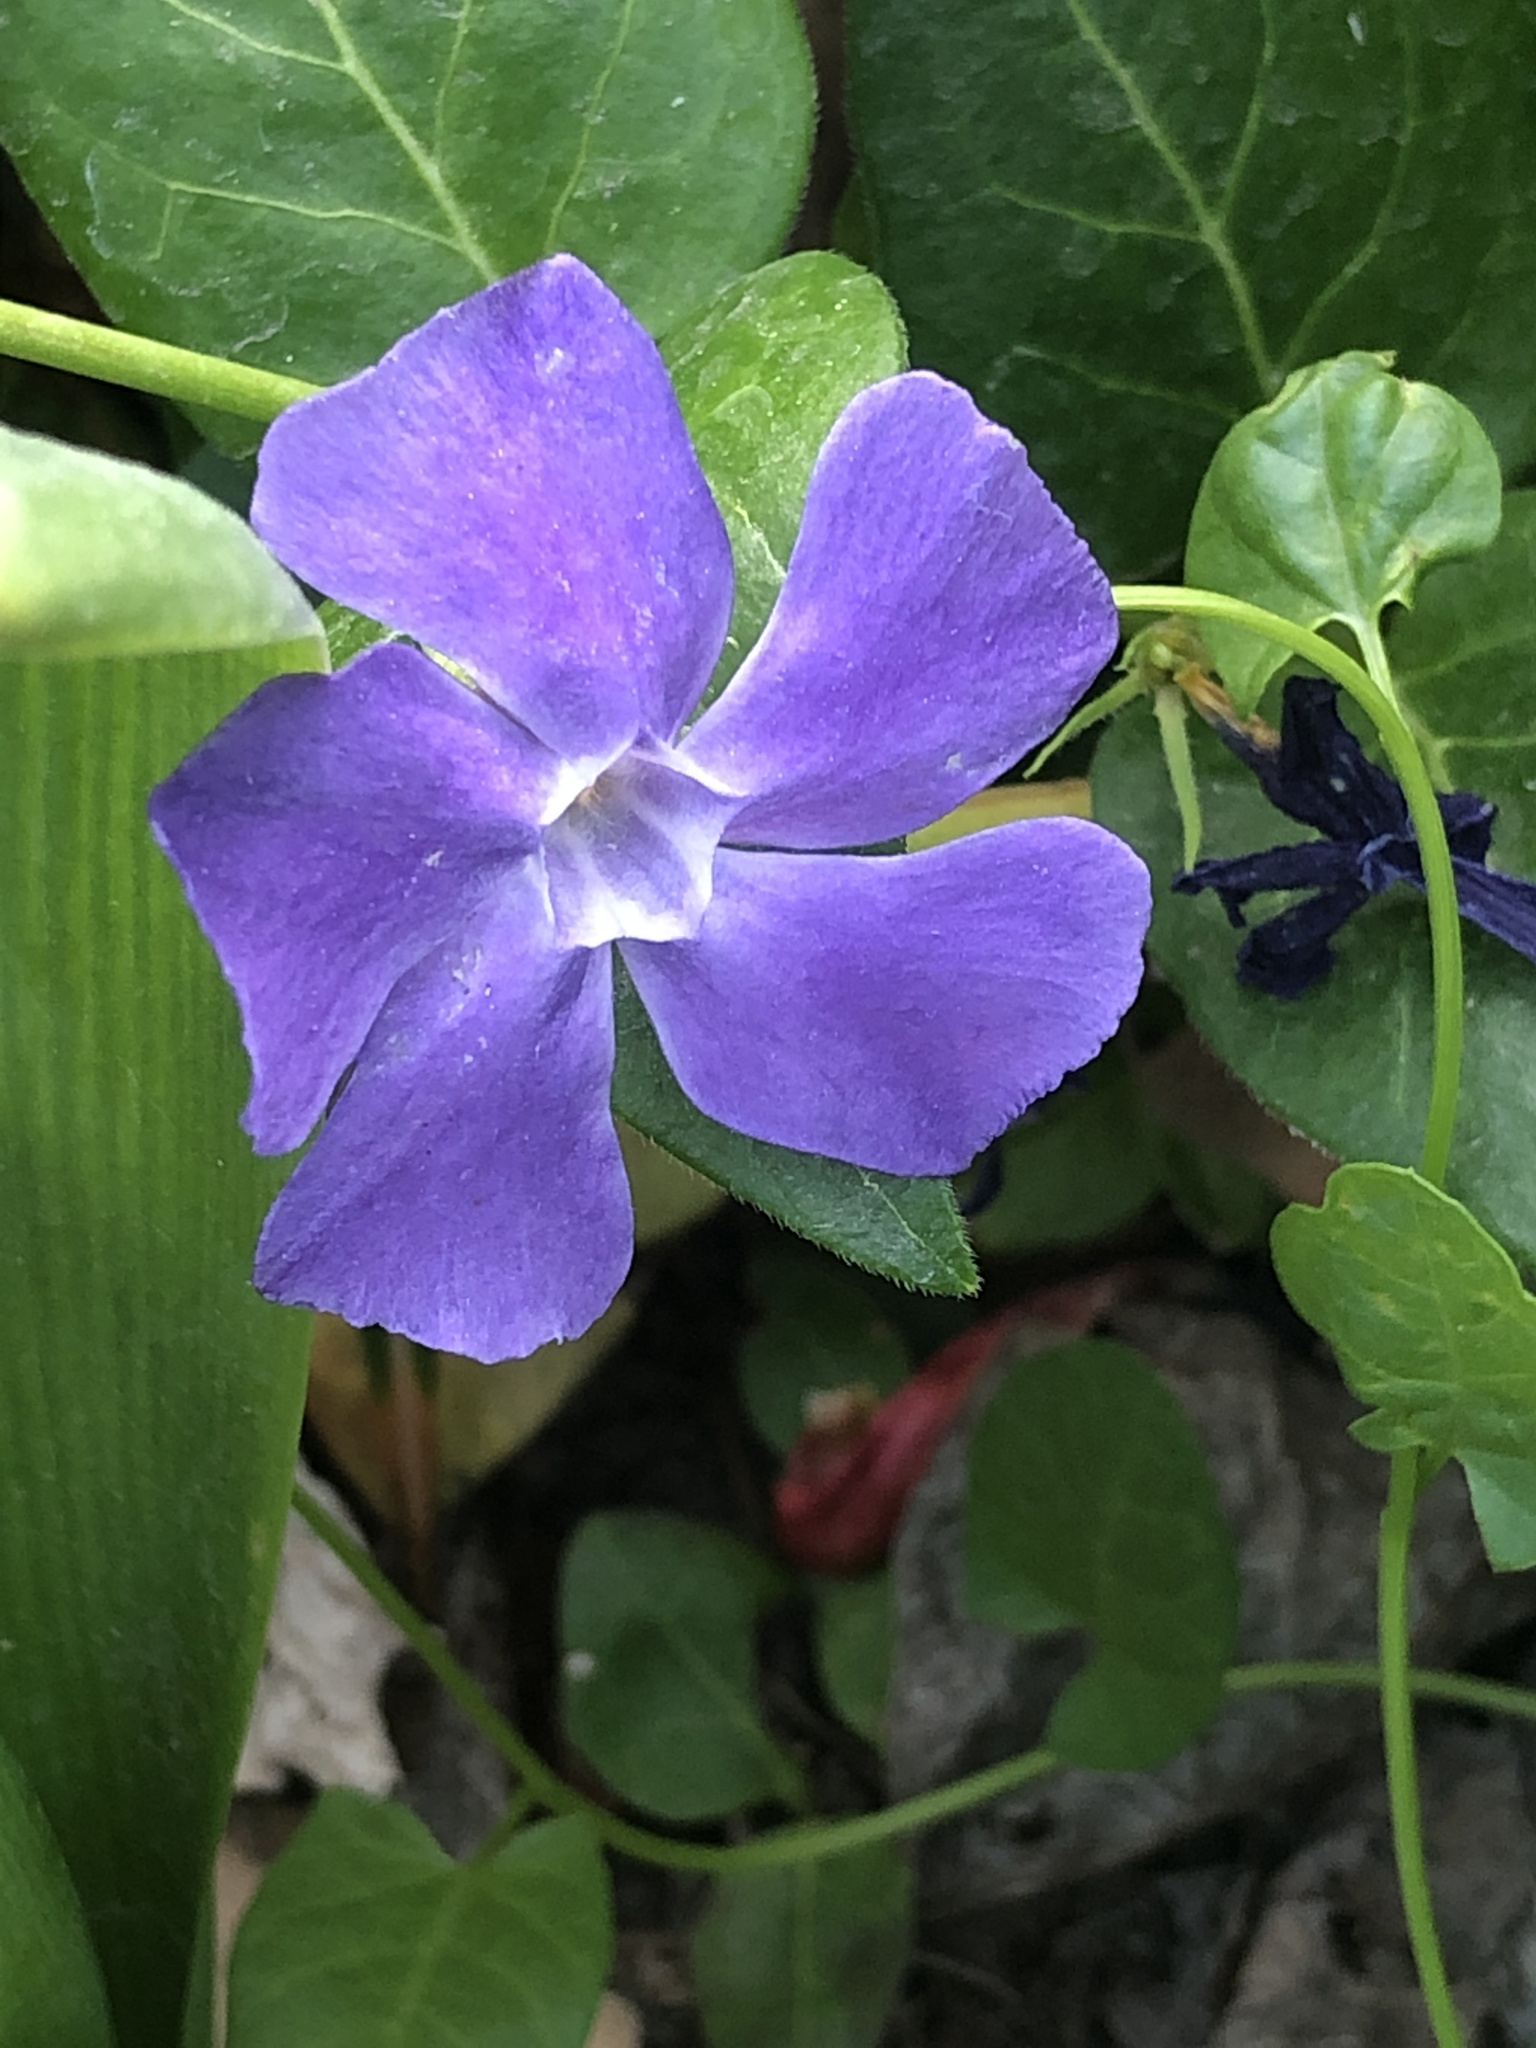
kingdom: Plantae
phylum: Tracheophyta
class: Magnoliopsida
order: Gentianales
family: Apocynaceae
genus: Vinca
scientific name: Vinca major
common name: Greater periwinkle
